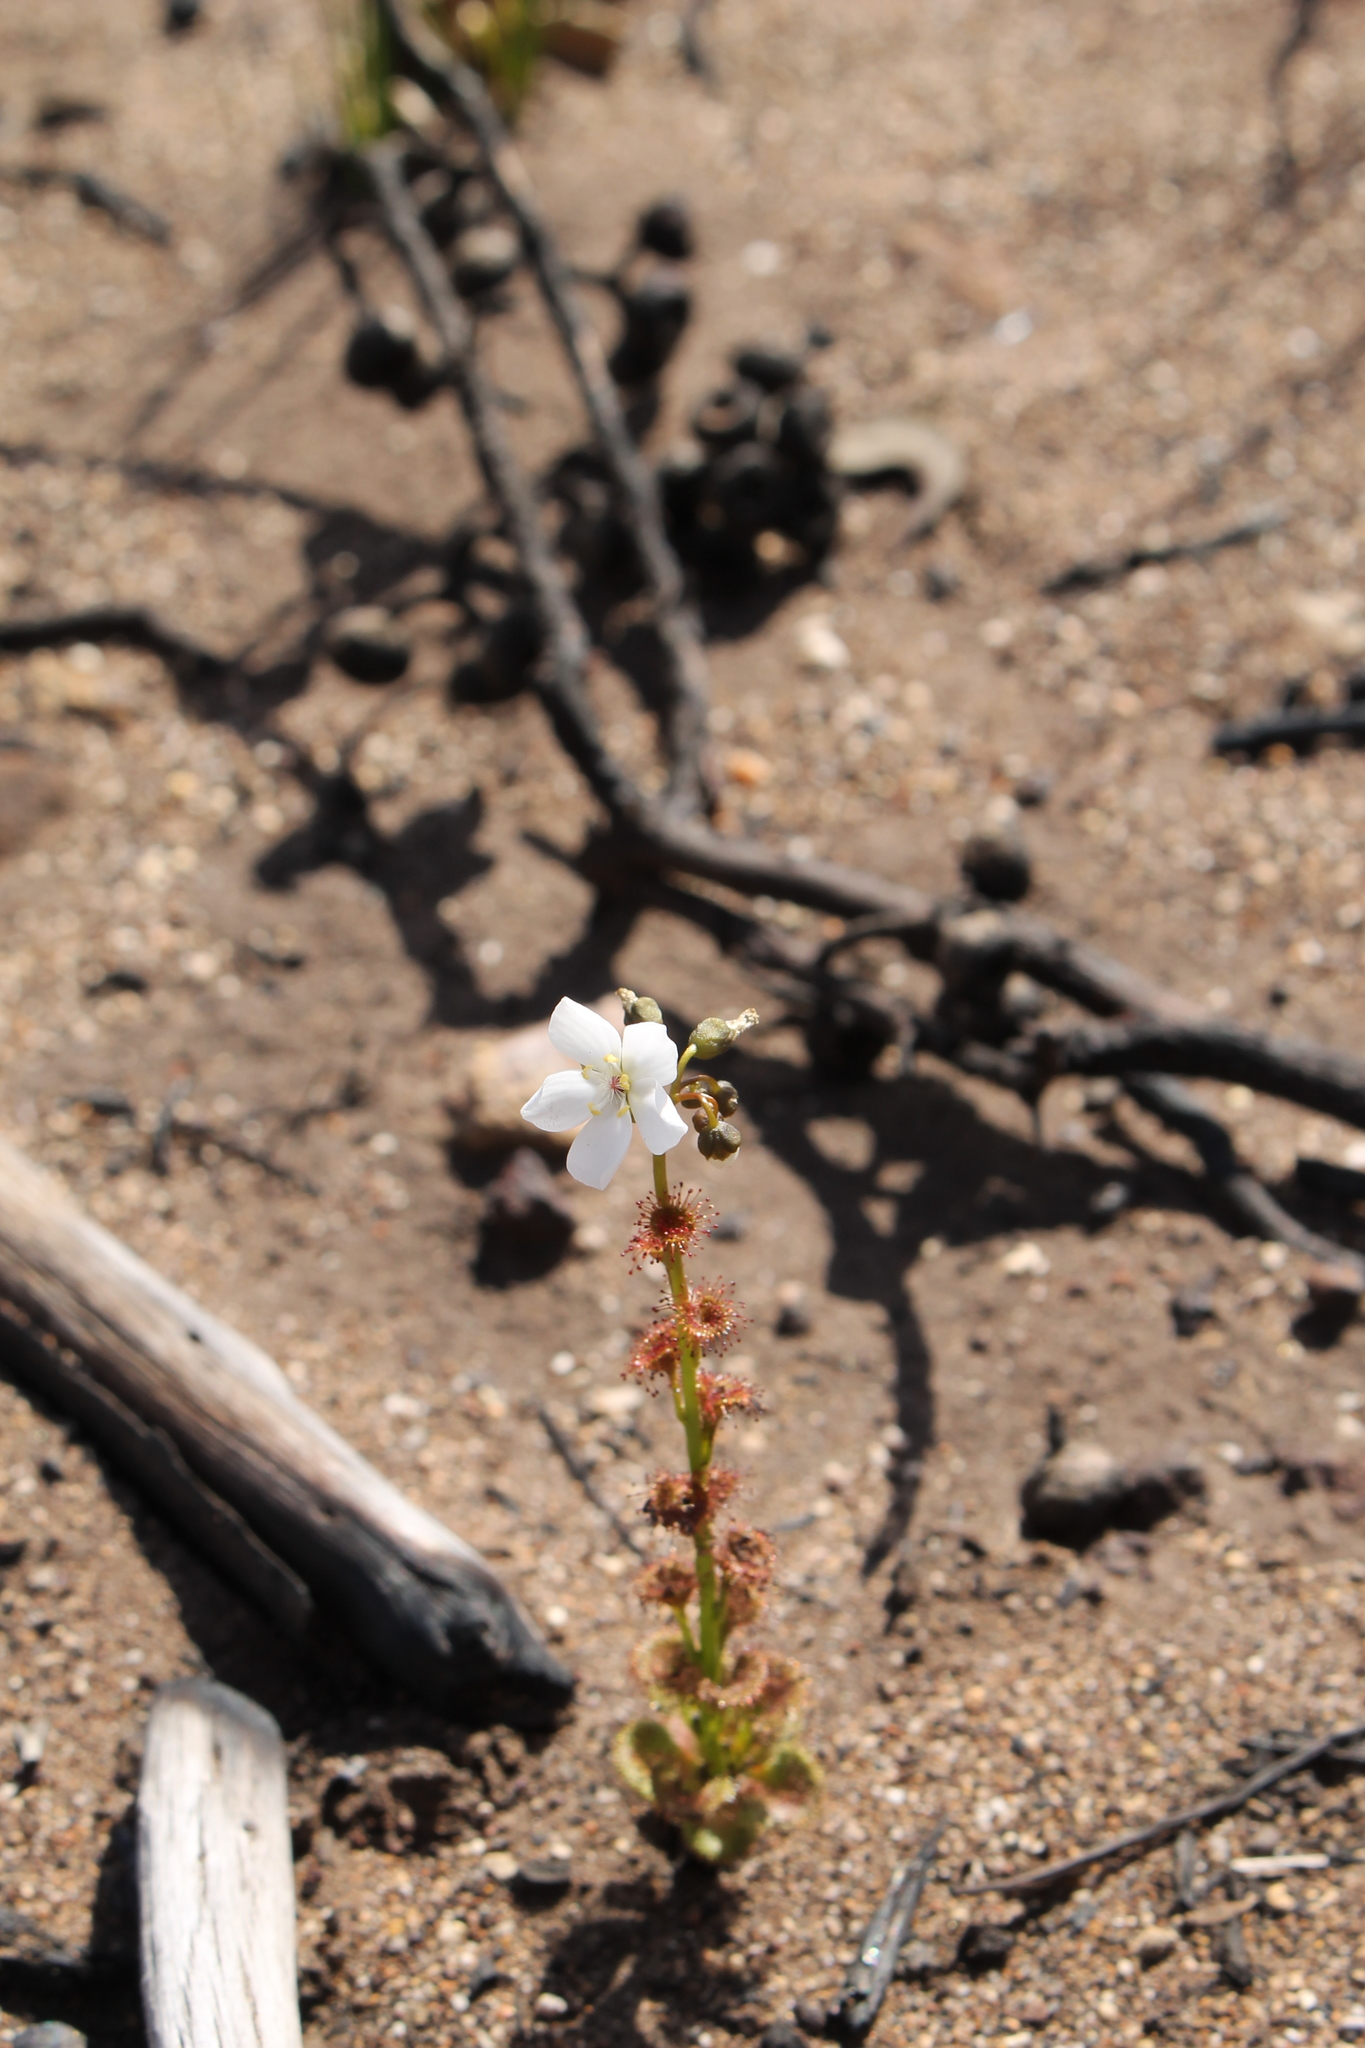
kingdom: Plantae
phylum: Tracheophyta
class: Magnoliopsida
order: Caryophyllales
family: Droseraceae
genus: Drosera
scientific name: Drosera platypoda
